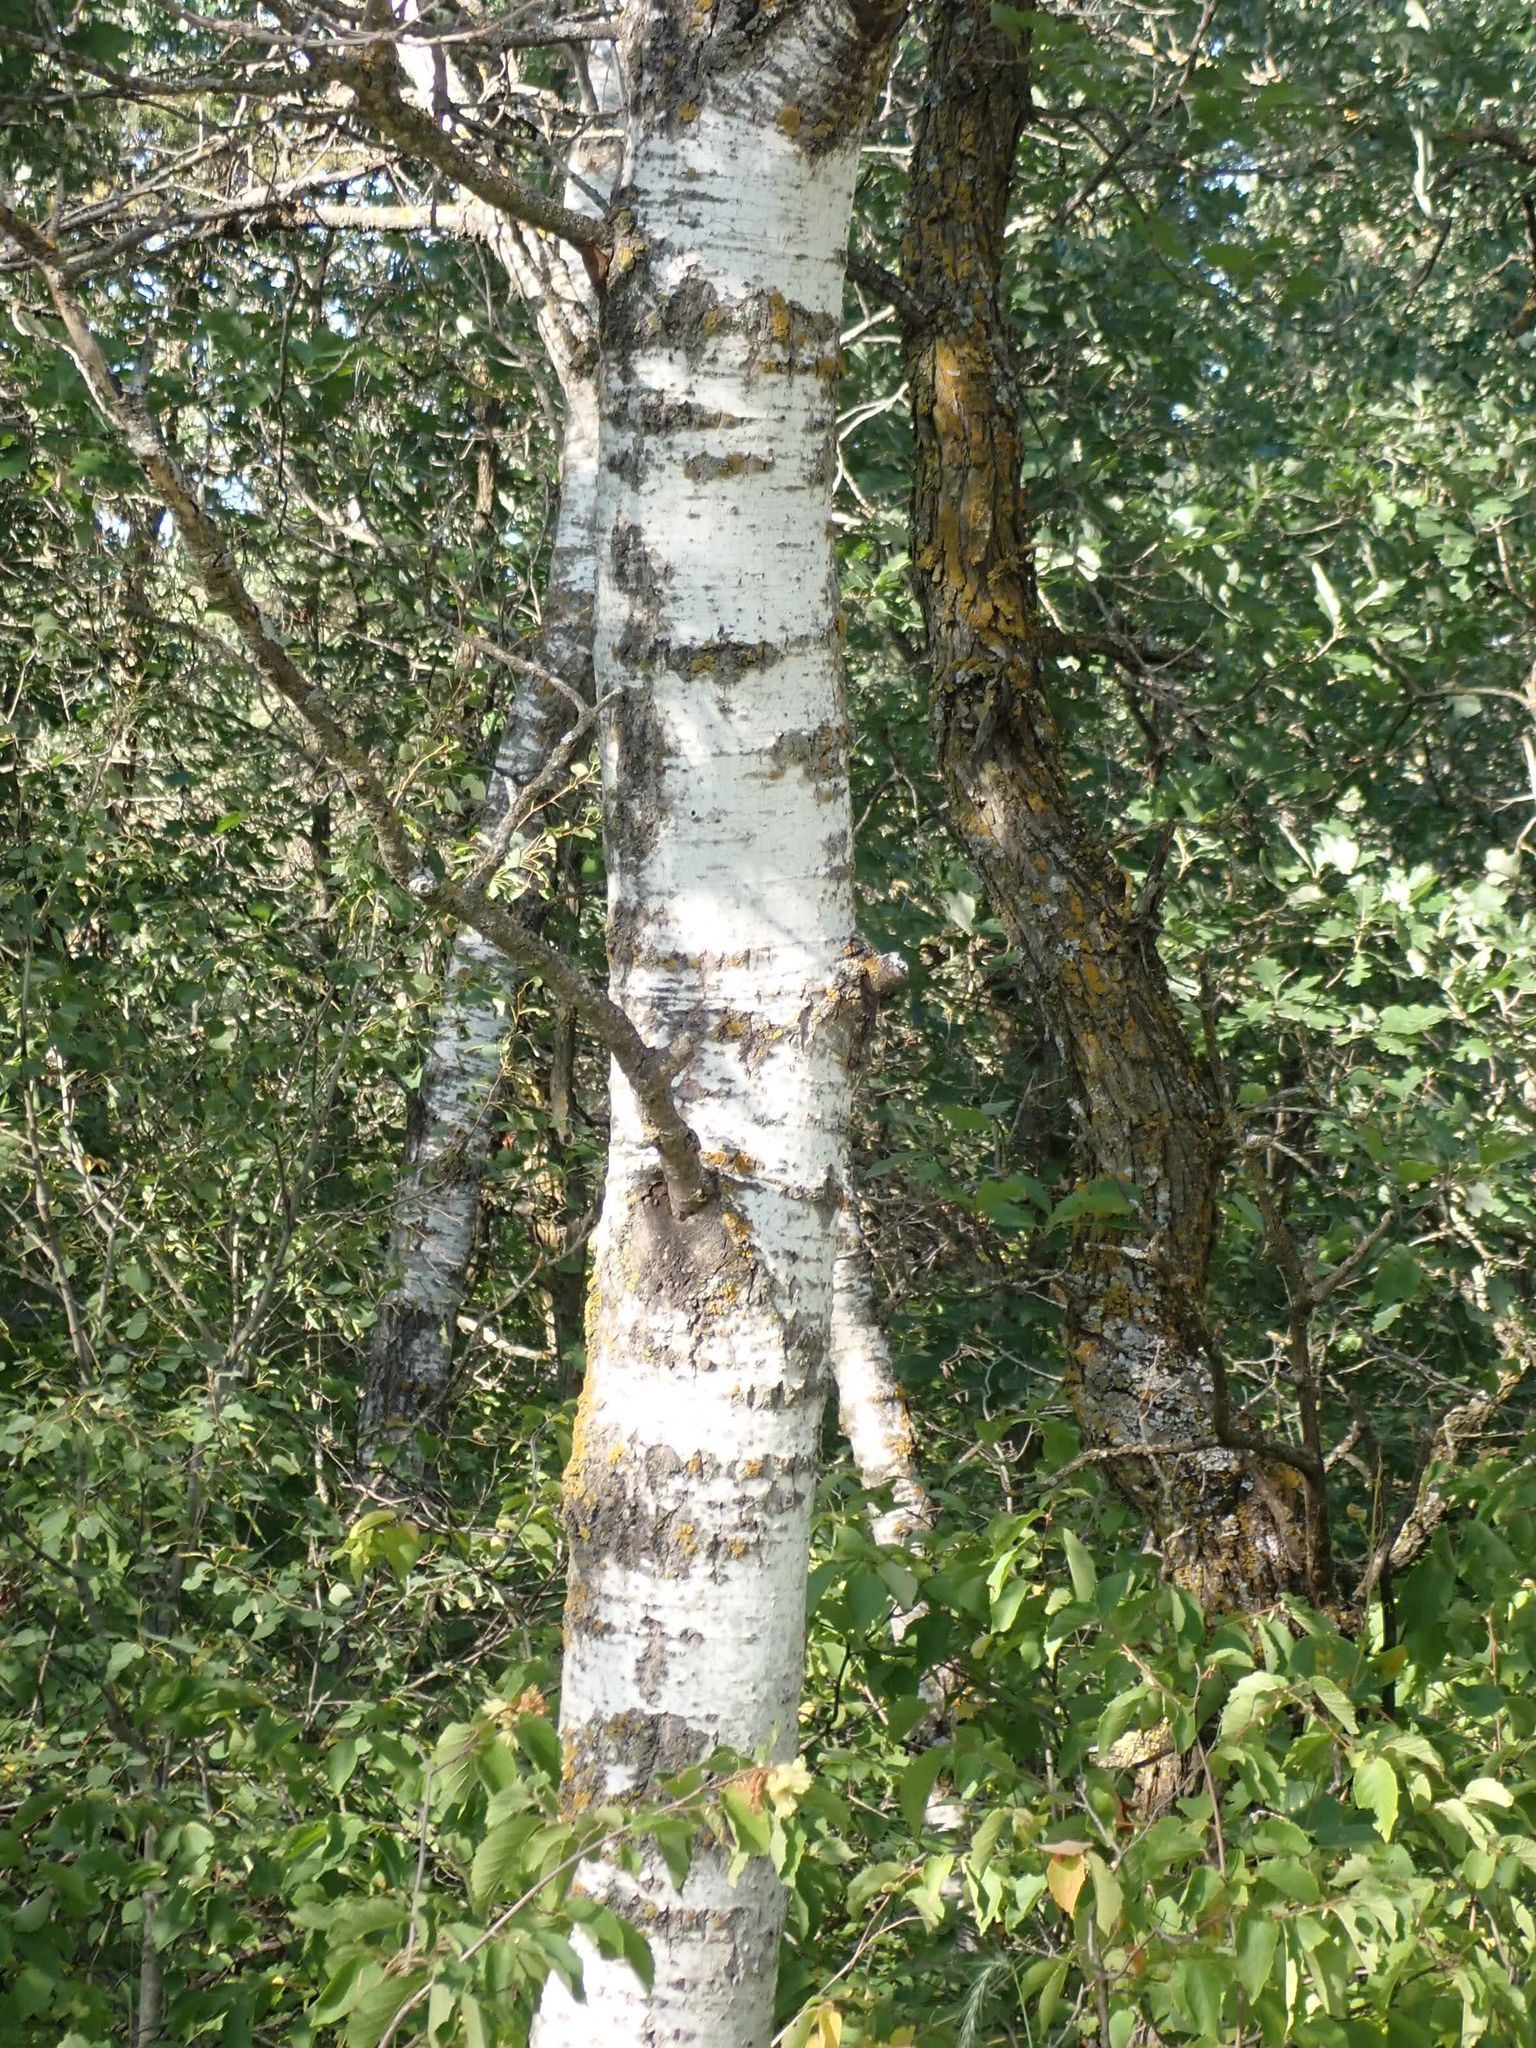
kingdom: Plantae
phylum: Tracheophyta
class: Magnoliopsida
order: Malpighiales
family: Salicaceae
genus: Populus
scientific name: Populus tremuloides
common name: Quaking aspen
